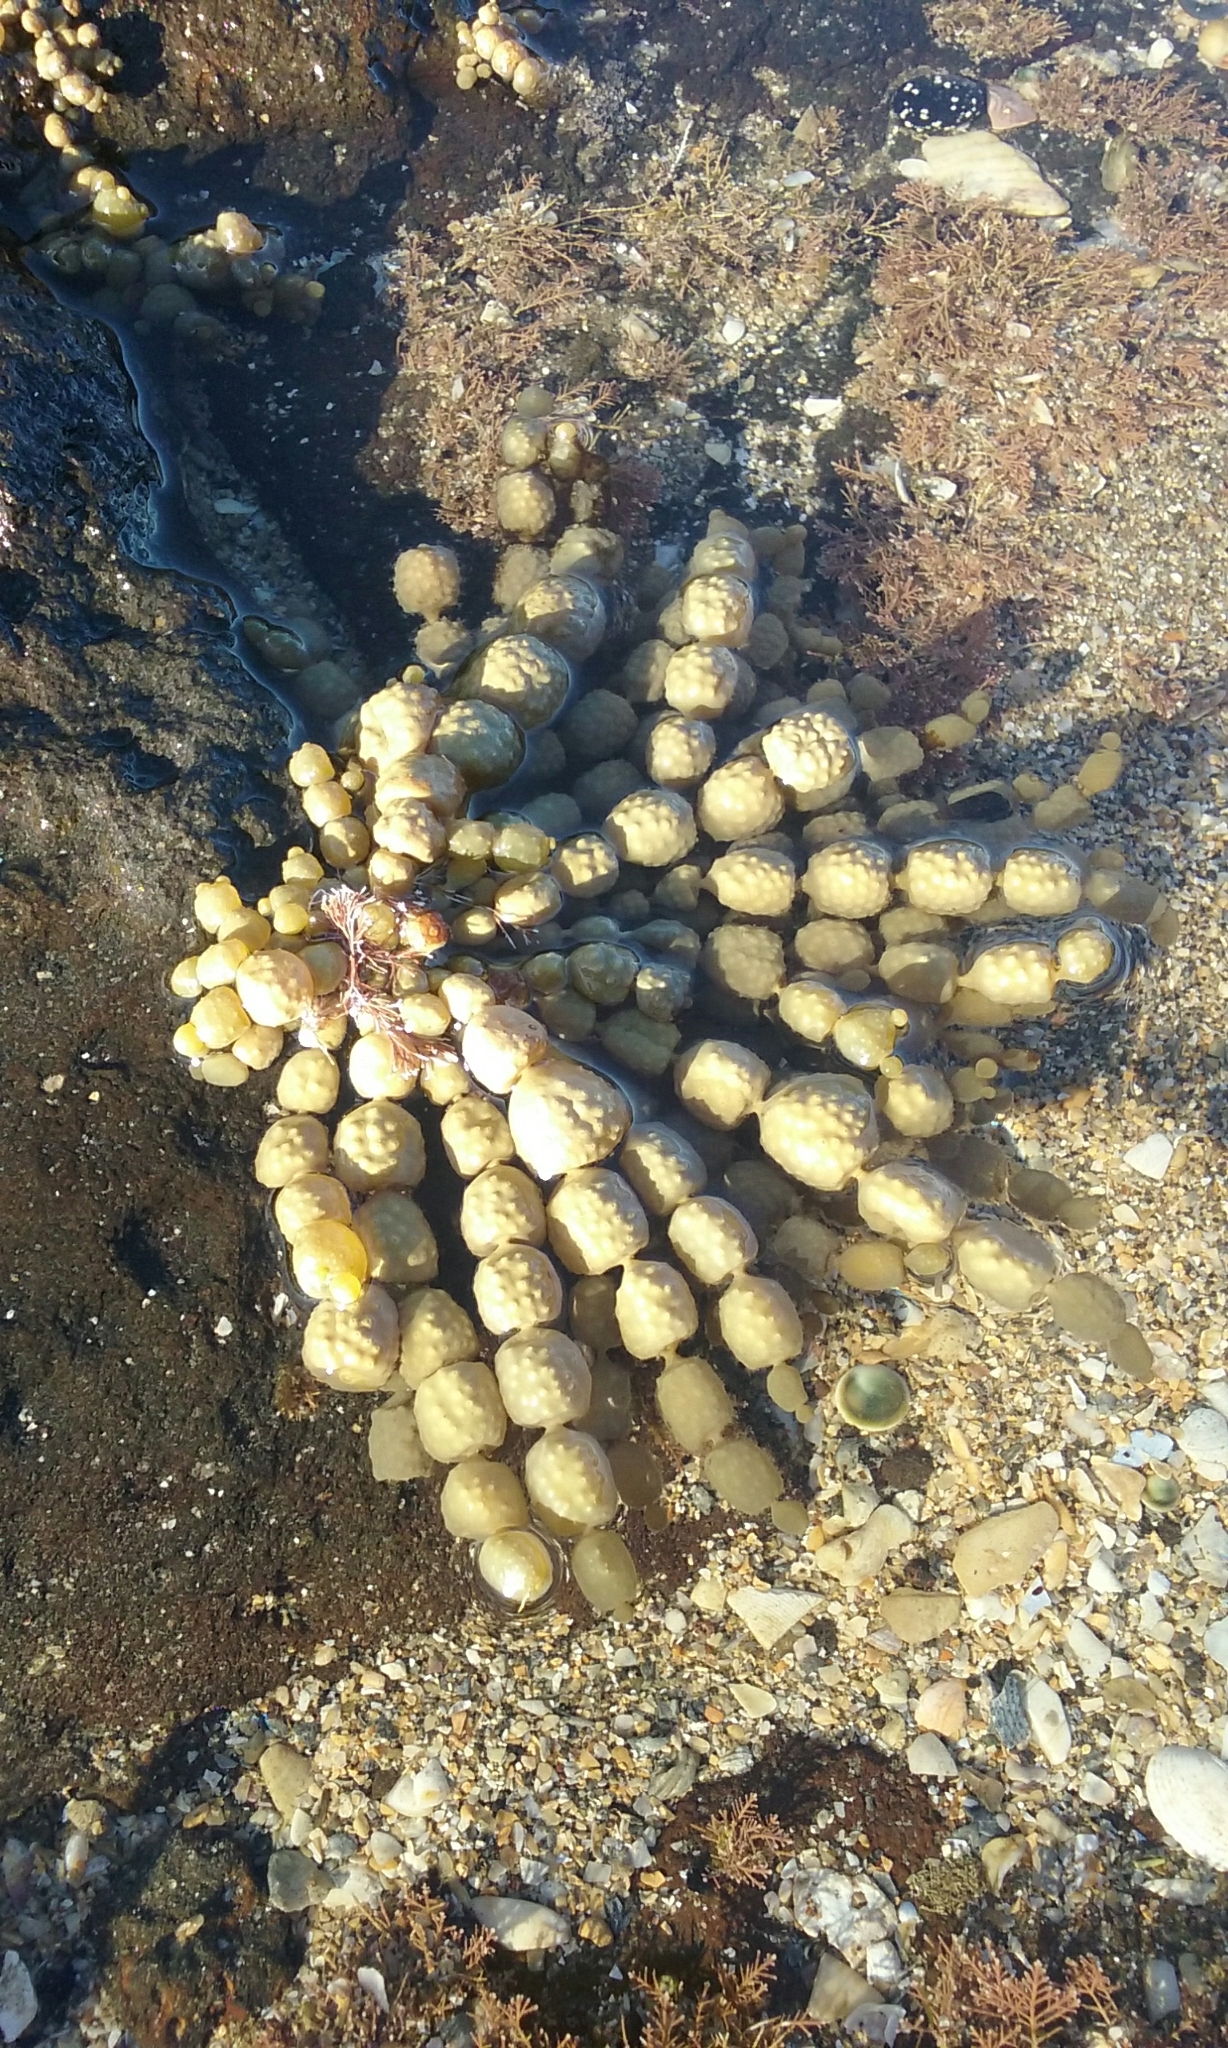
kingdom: Chromista
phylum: Ochrophyta
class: Phaeophyceae
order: Fucales
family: Hormosiraceae
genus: Hormosira
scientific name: Hormosira banksii
